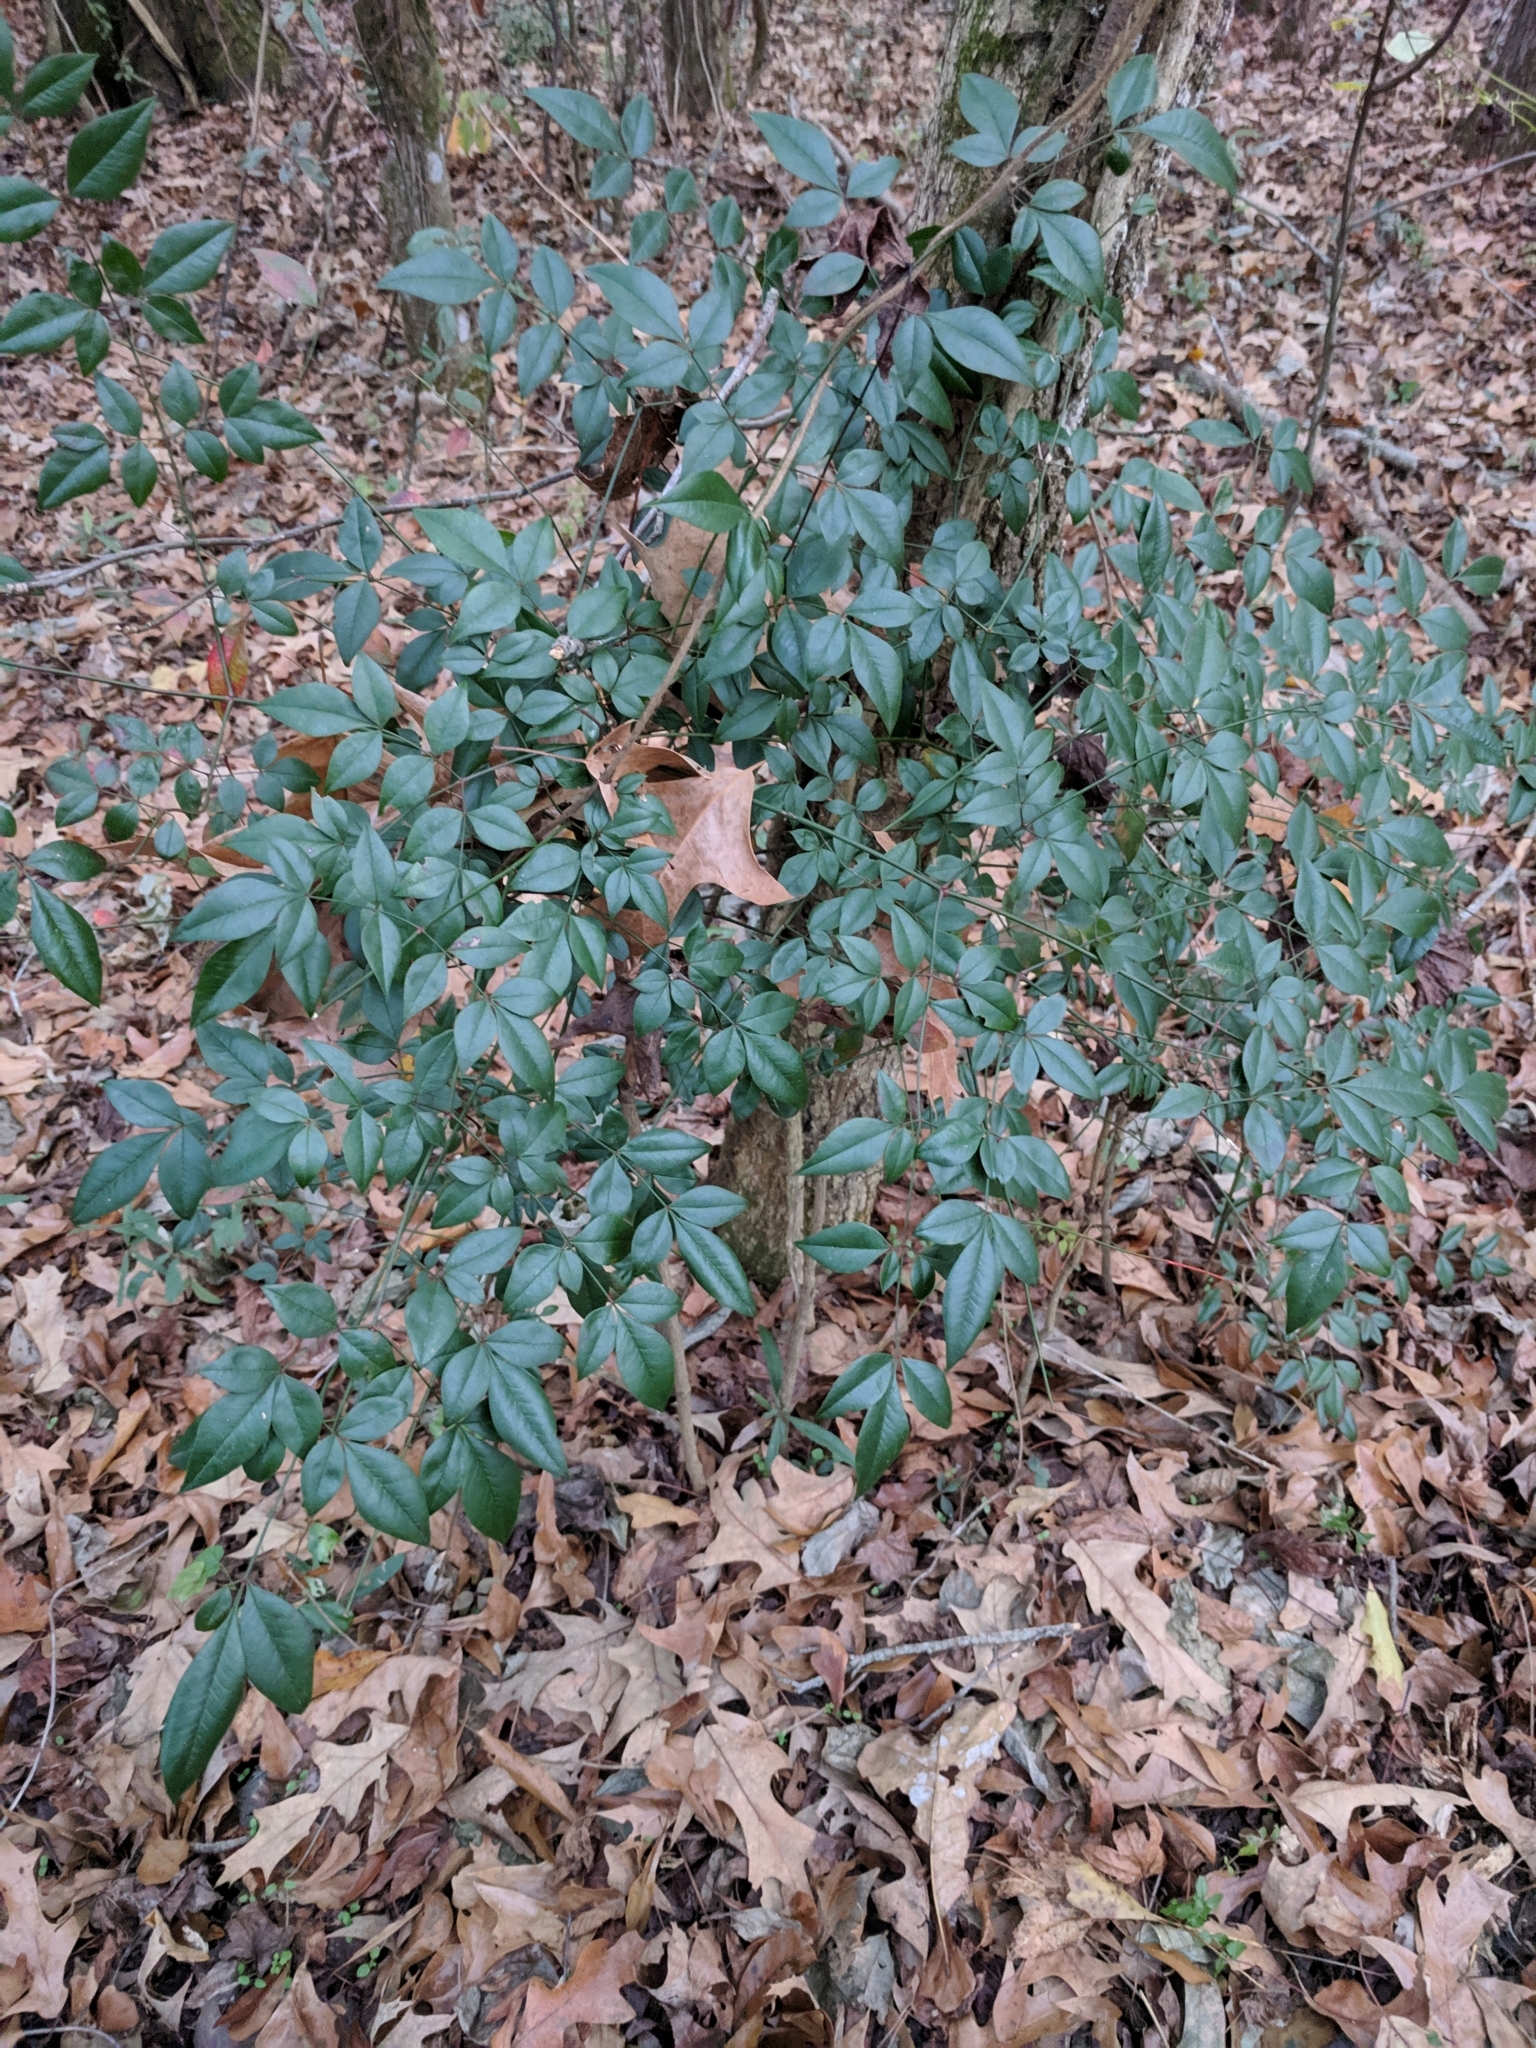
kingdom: Plantae
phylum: Tracheophyta
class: Magnoliopsida
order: Ranunculales
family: Berberidaceae
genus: Nandina
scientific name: Nandina domestica
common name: Sacred bamboo
